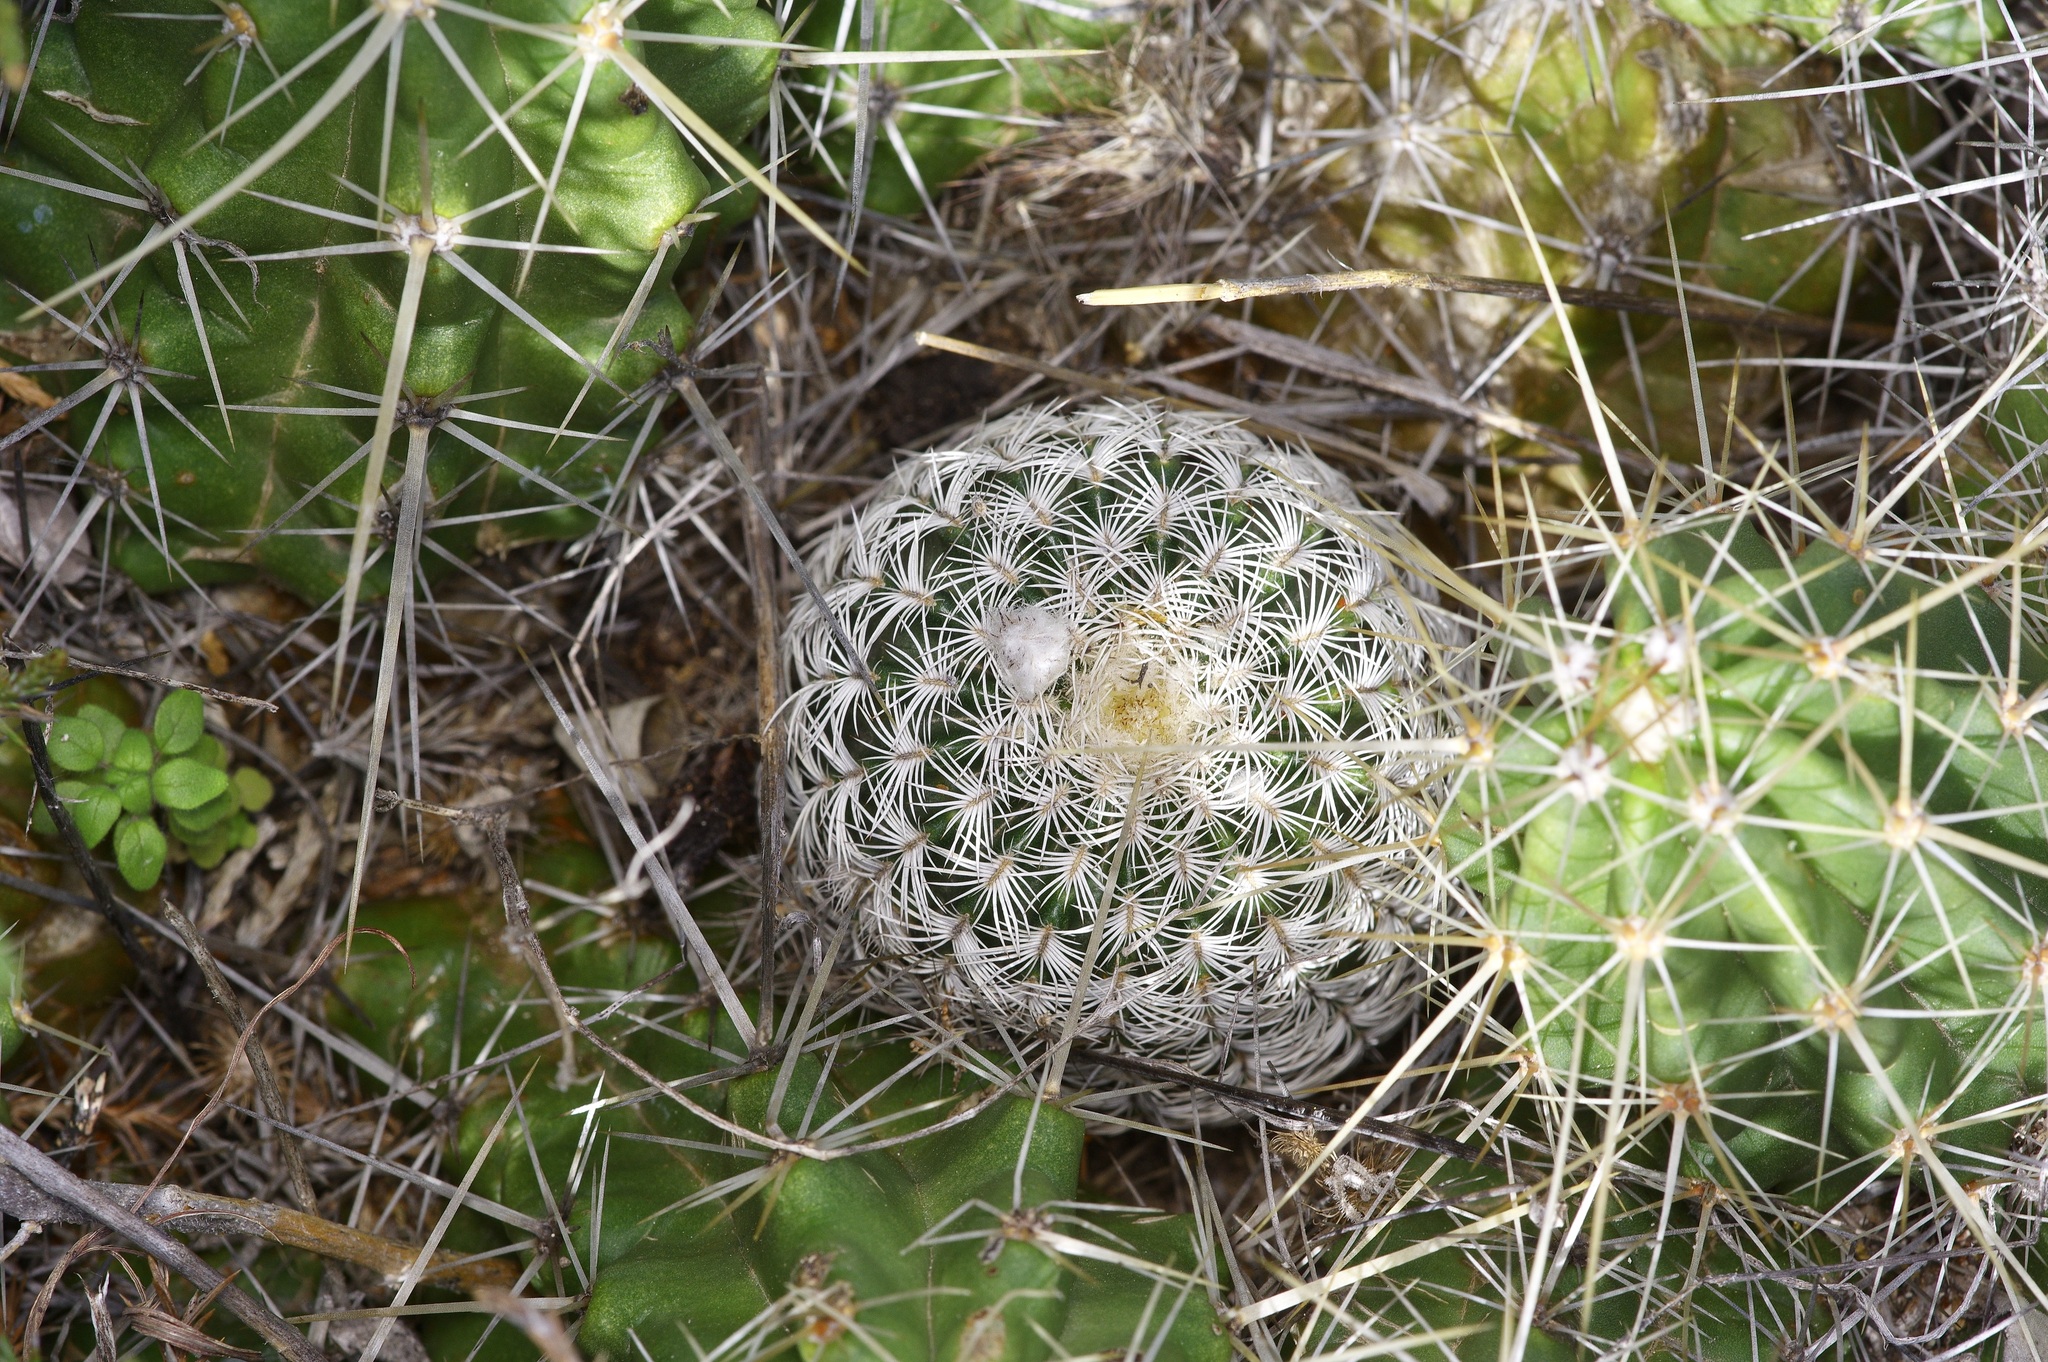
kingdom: Plantae
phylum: Tracheophyta
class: Magnoliopsida
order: Caryophyllales
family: Cactaceae
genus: Echinocereus
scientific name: Echinocereus reichenbachii
